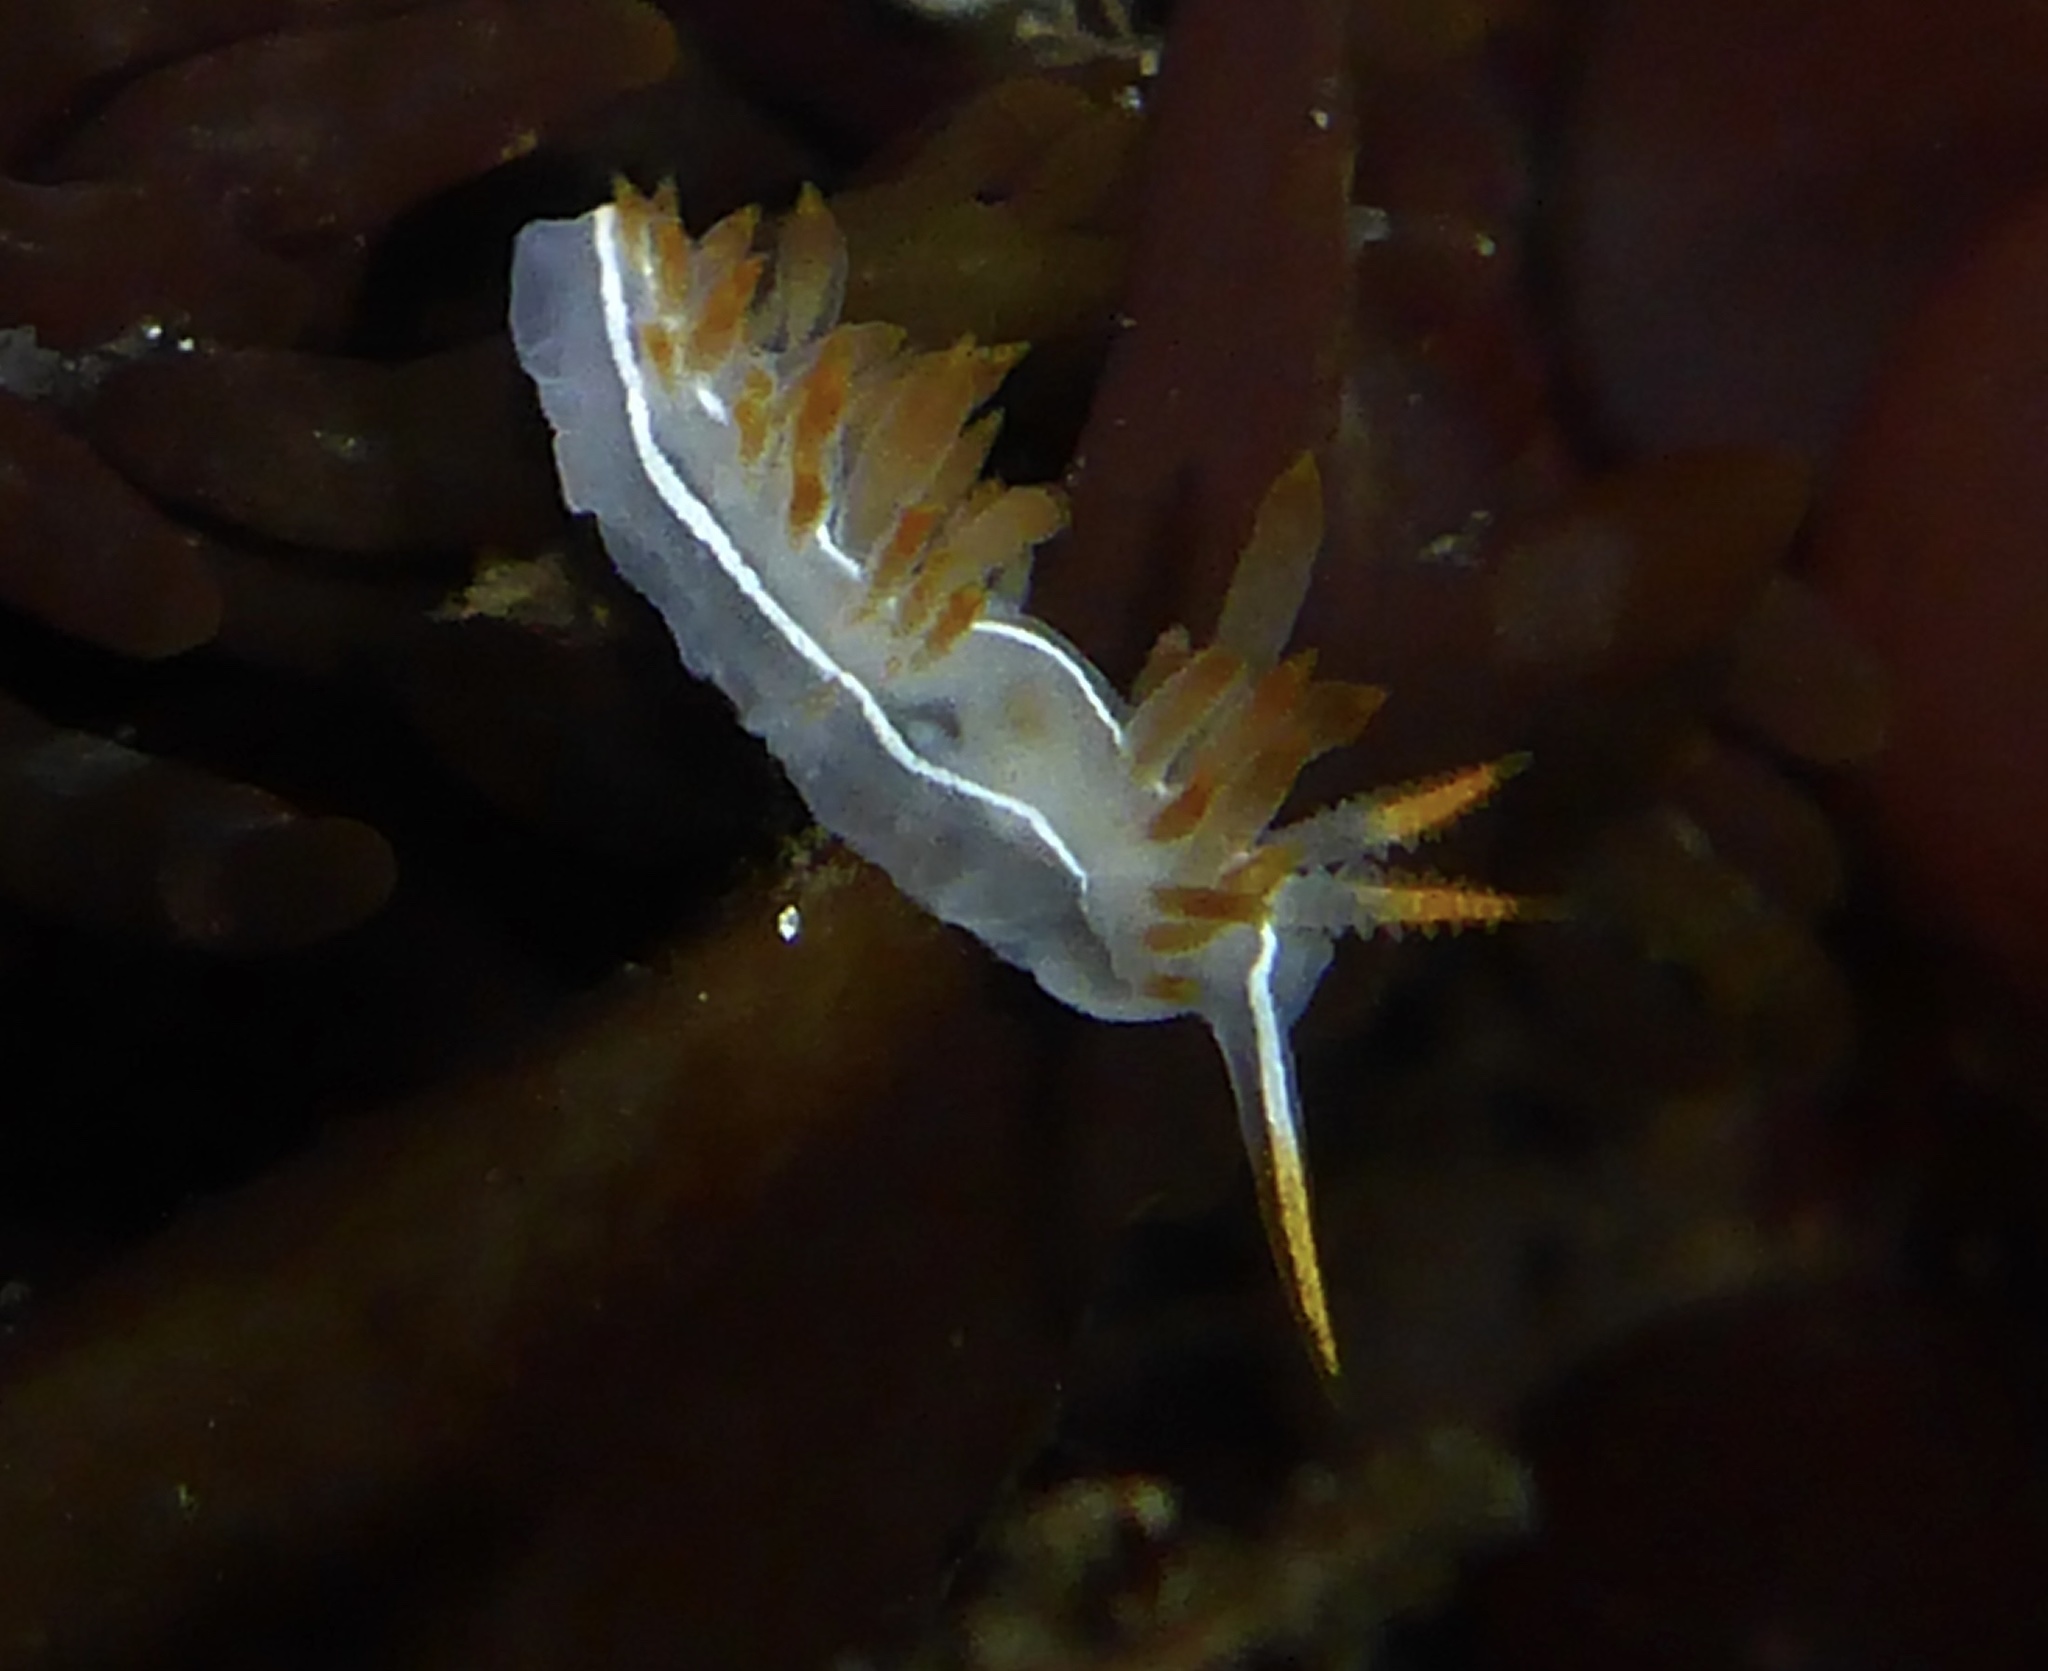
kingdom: Animalia
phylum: Mollusca
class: Gastropoda
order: Nudibranchia
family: Coryphellidae
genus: Coryphella
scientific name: Coryphella trilineata
